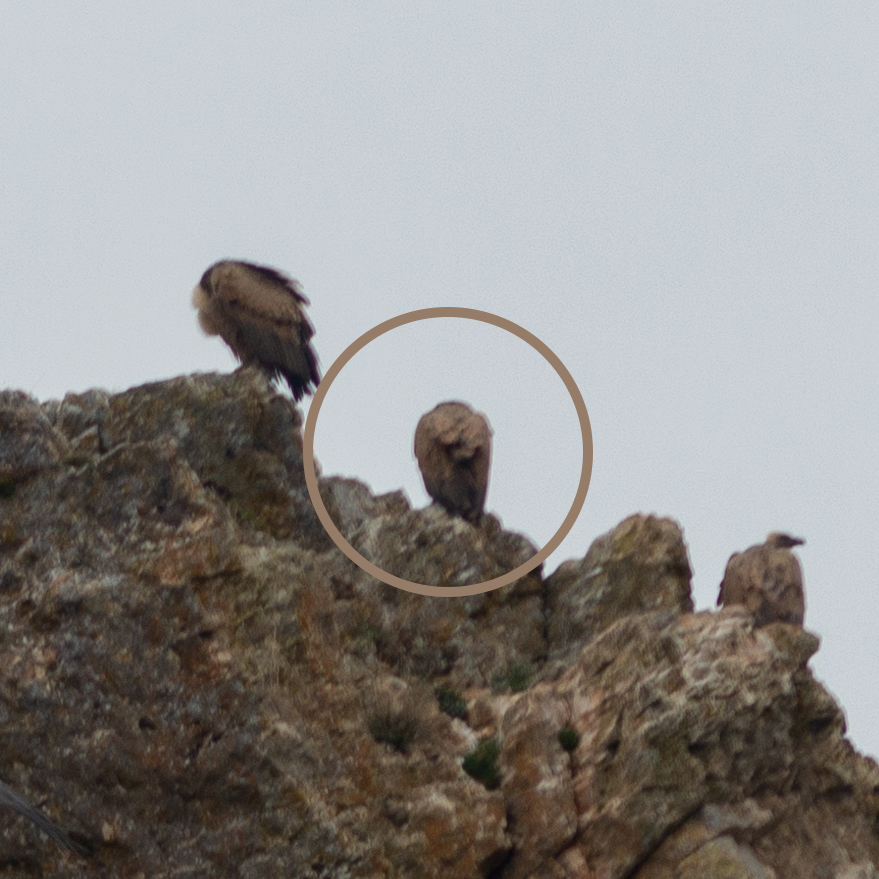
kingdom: Animalia
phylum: Chordata
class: Aves
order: Accipitriformes
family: Accipitridae
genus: Gyps
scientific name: Gyps fulvus
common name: Griffon vulture
